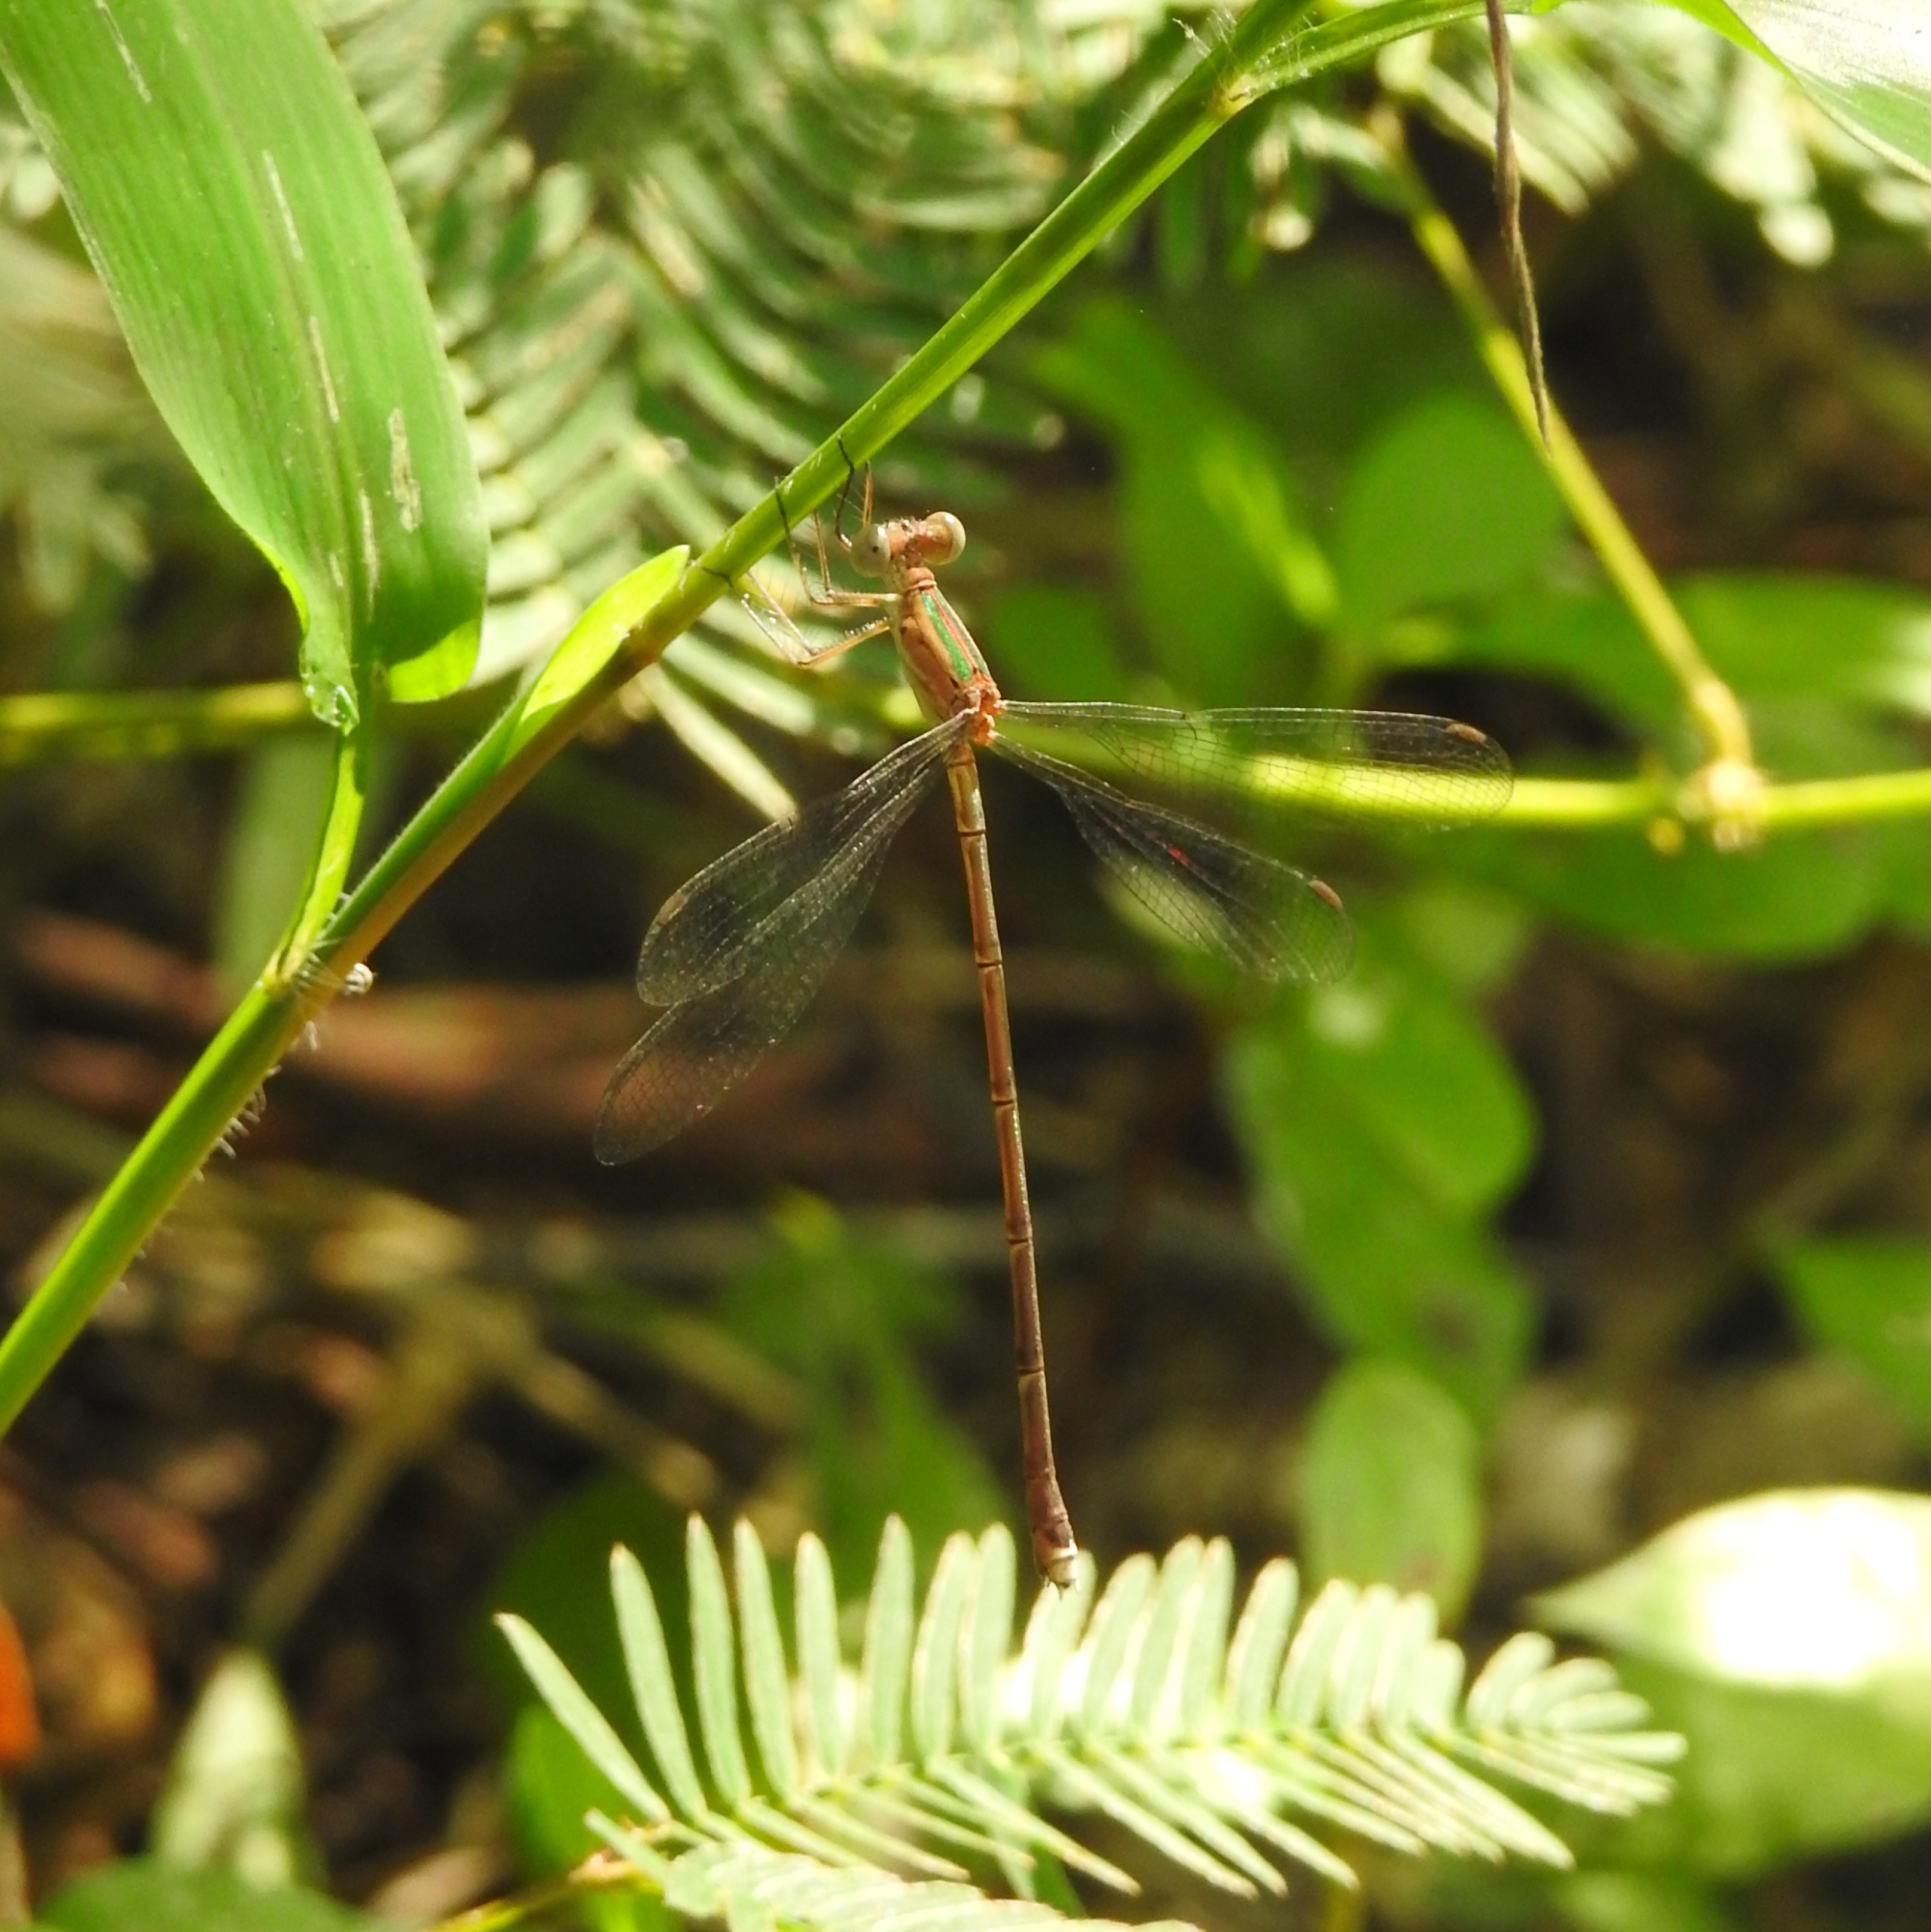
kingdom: Animalia
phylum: Arthropoda
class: Insecta
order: Odonata
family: Lestidae
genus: Lestes
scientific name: Lestes elatus
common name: Emerald spreadwing
